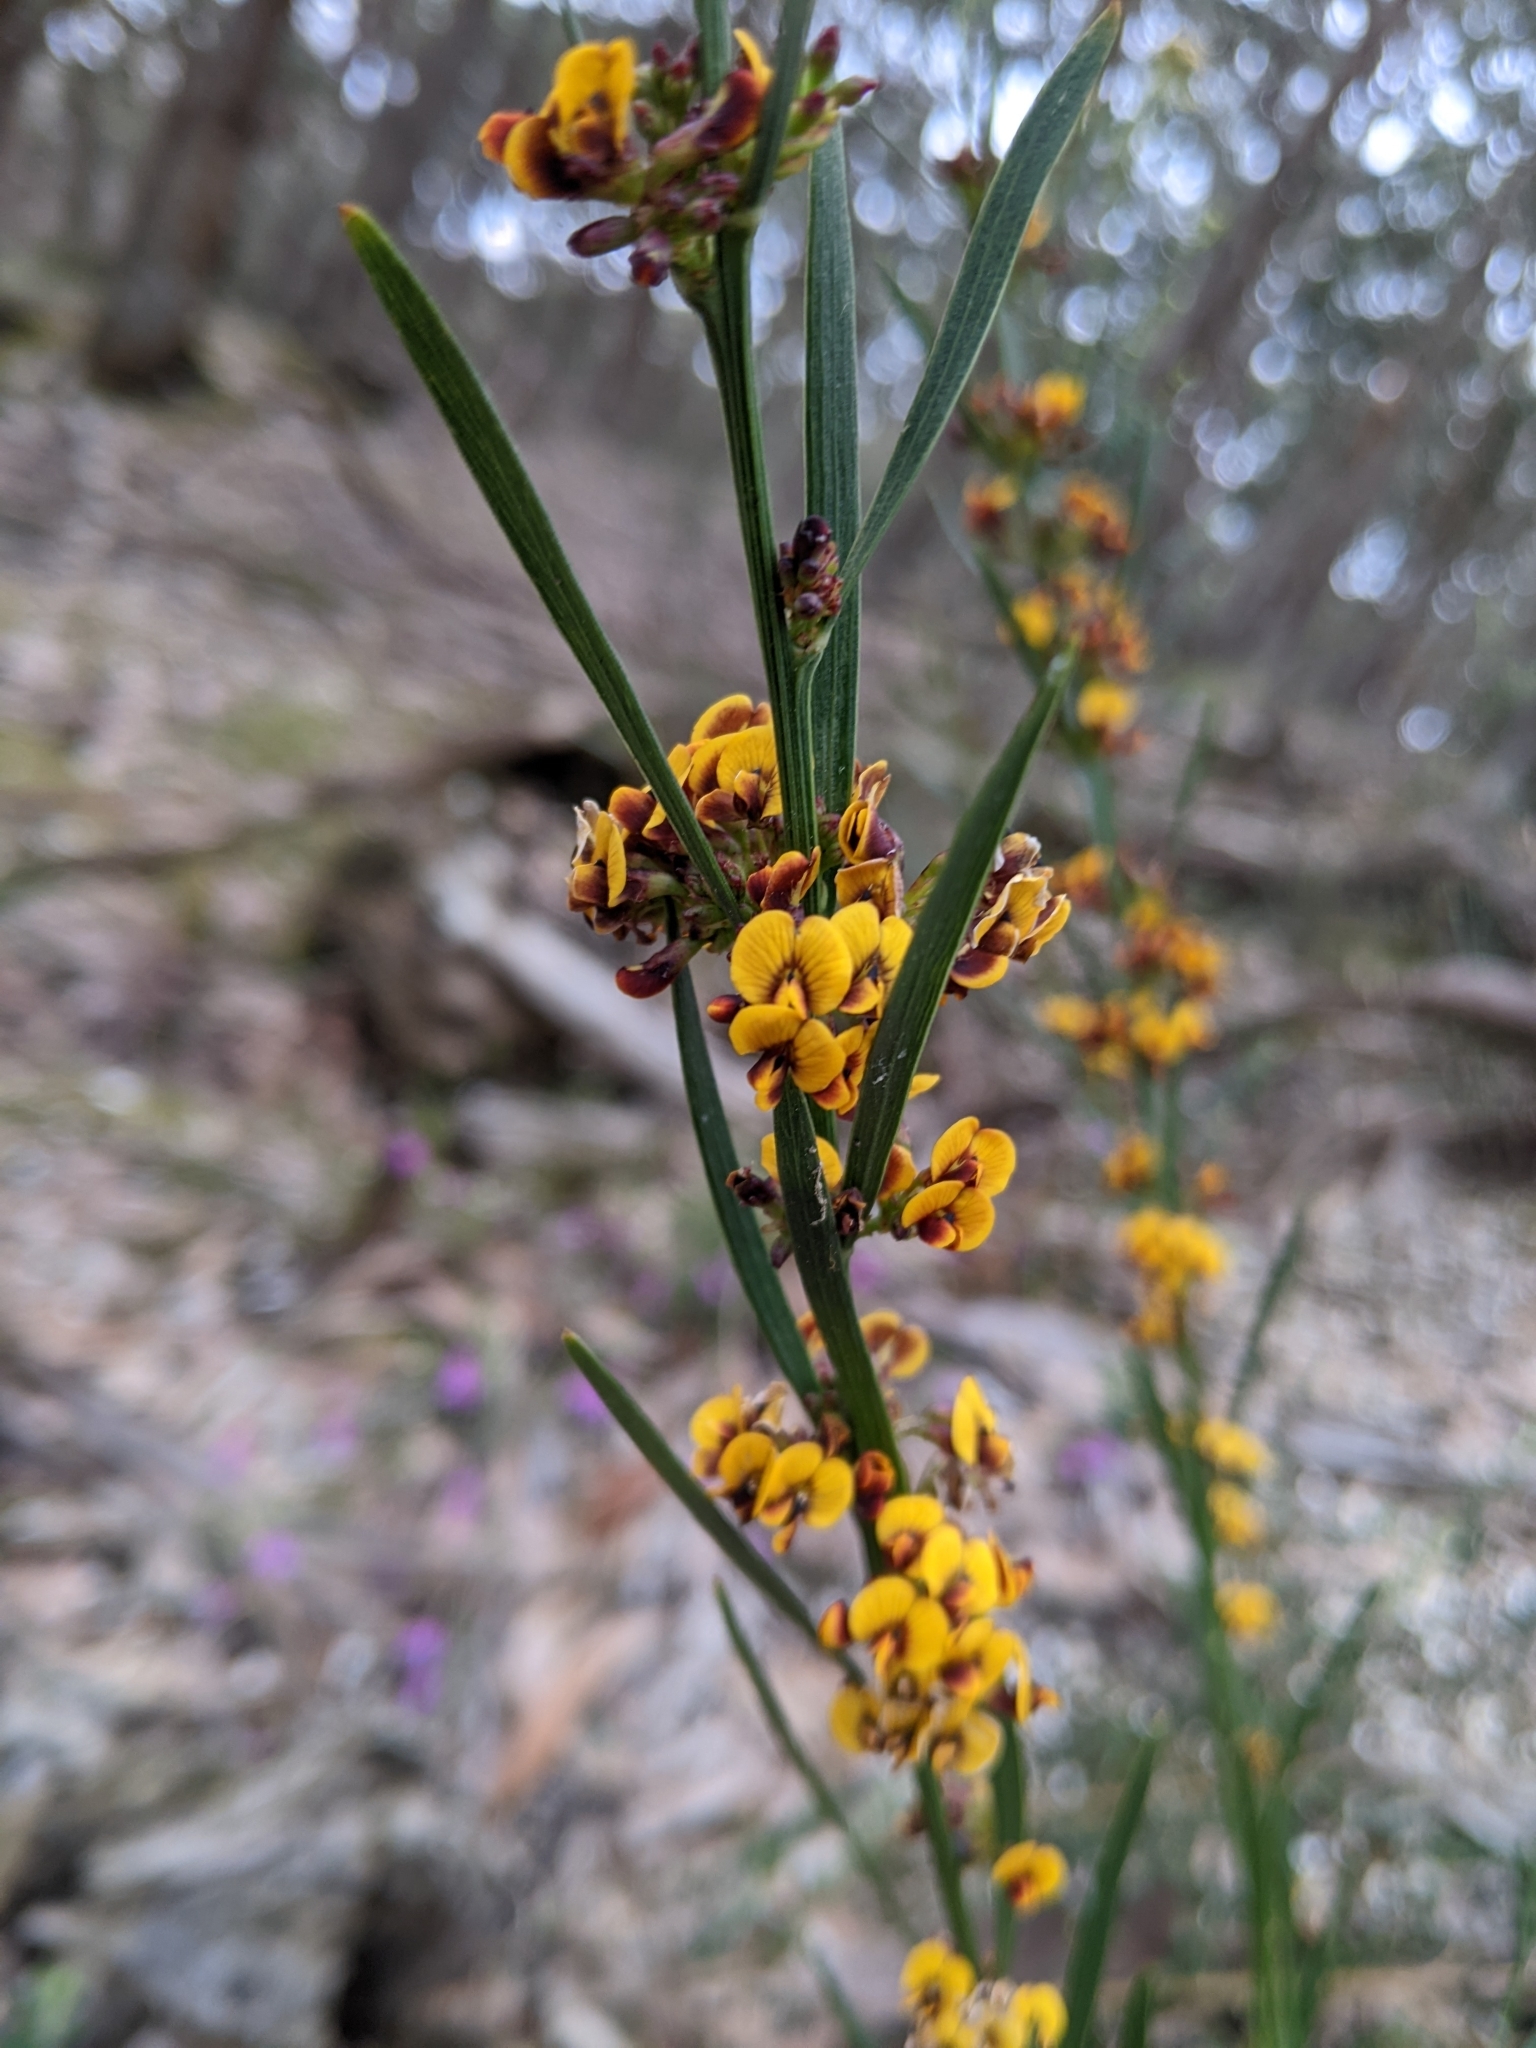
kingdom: Plantae
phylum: Tracheophyta
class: Magnoliopsida
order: Fabales
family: Fabaceae
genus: Daviesia
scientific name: Daviesia leptophylla
